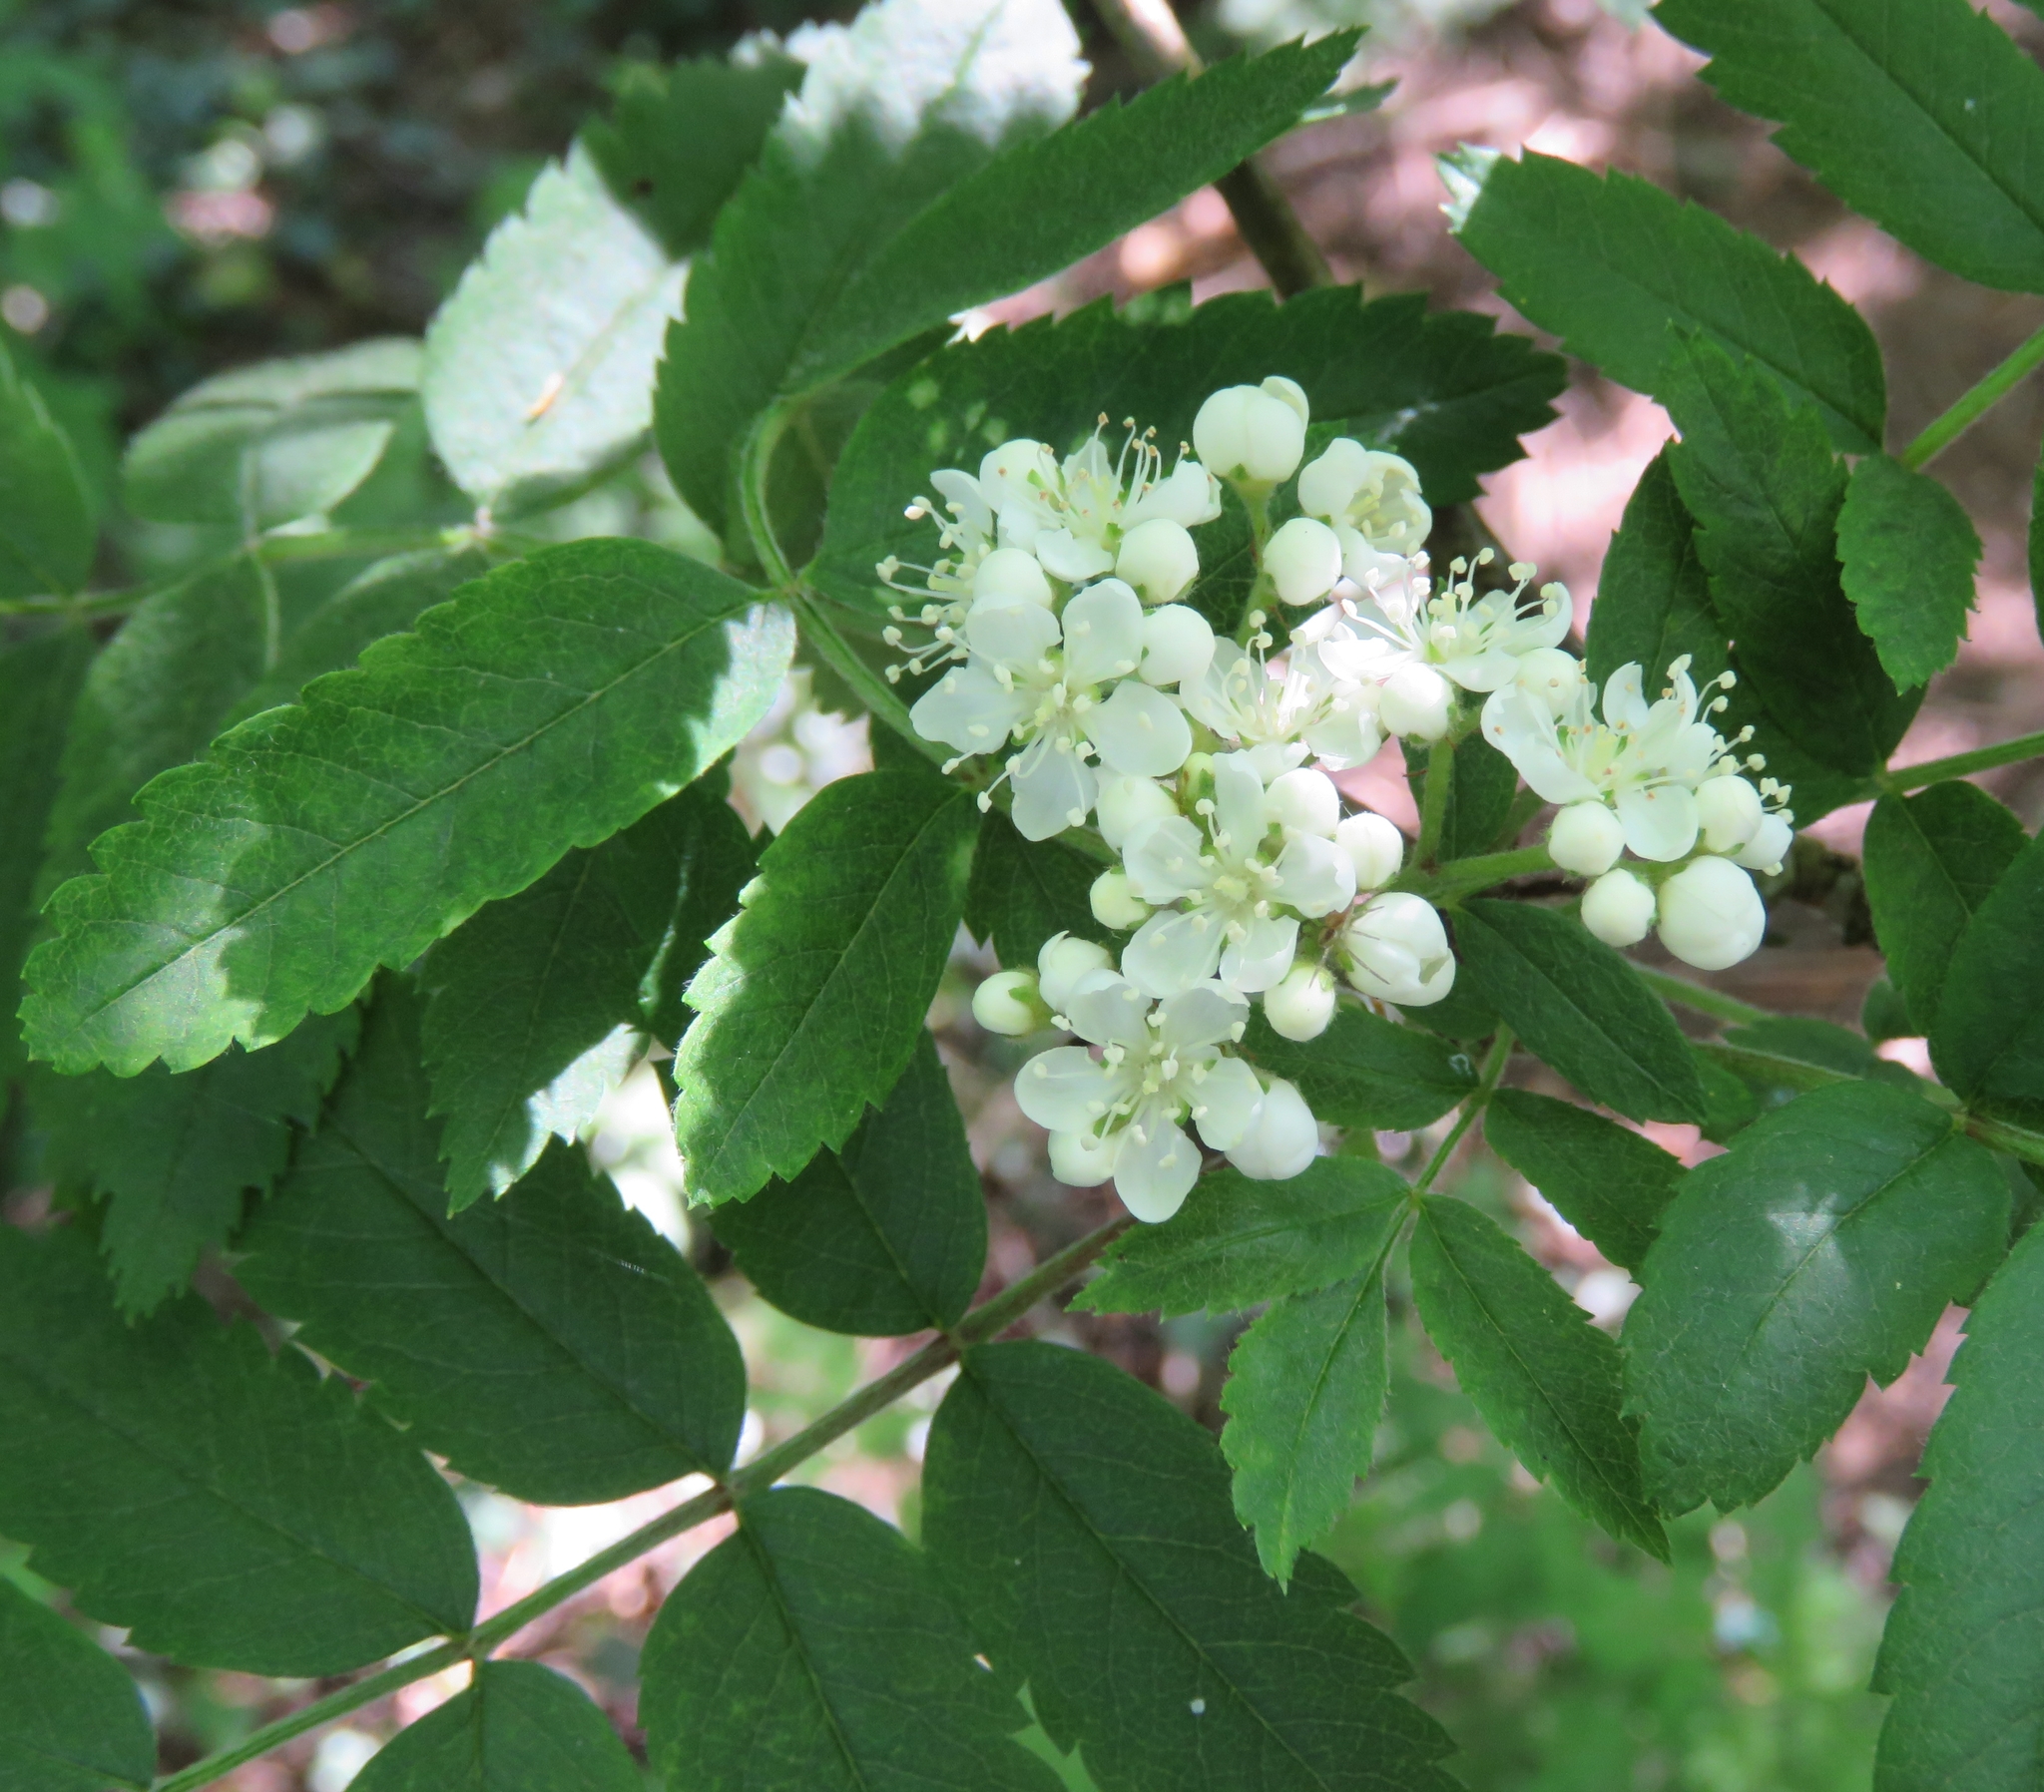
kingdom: Plantae
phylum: Tracheophyta
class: Magnoliopsida
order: Rosales
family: Rosaceae
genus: Sorbus
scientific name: Sorbus aucuparia
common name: Rowan
